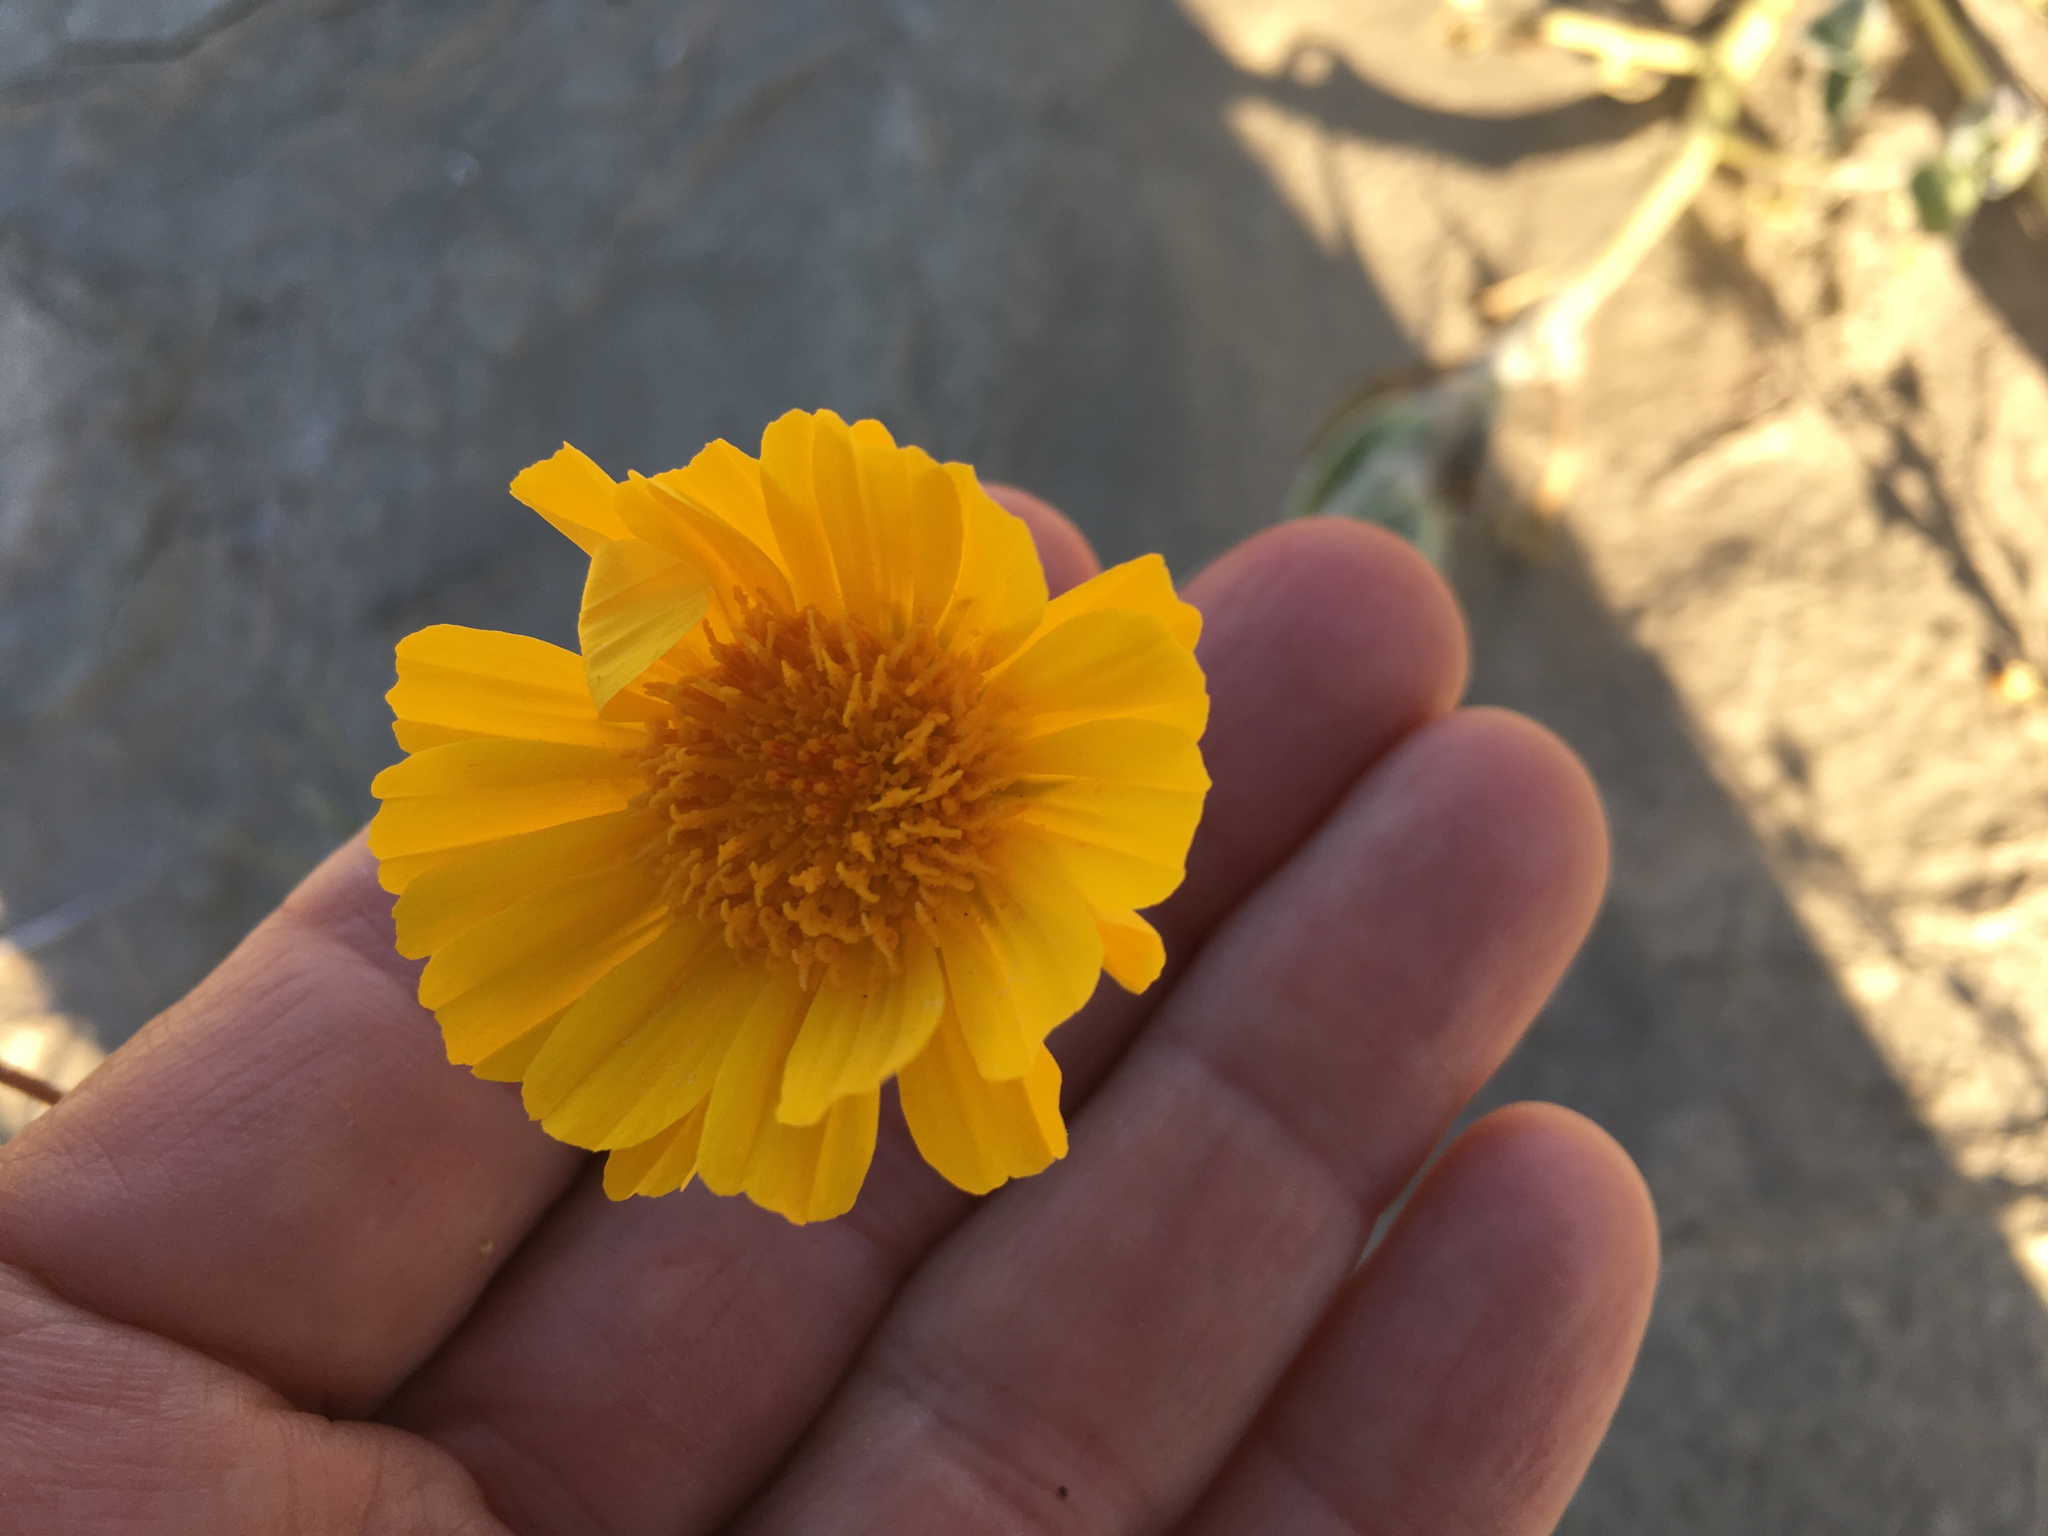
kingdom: Plantae
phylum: Tracheophyta
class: Magnoliopsida
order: Asterales
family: Asteraceae
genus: Geraea
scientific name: Geraea canescens
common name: Desert-gold
